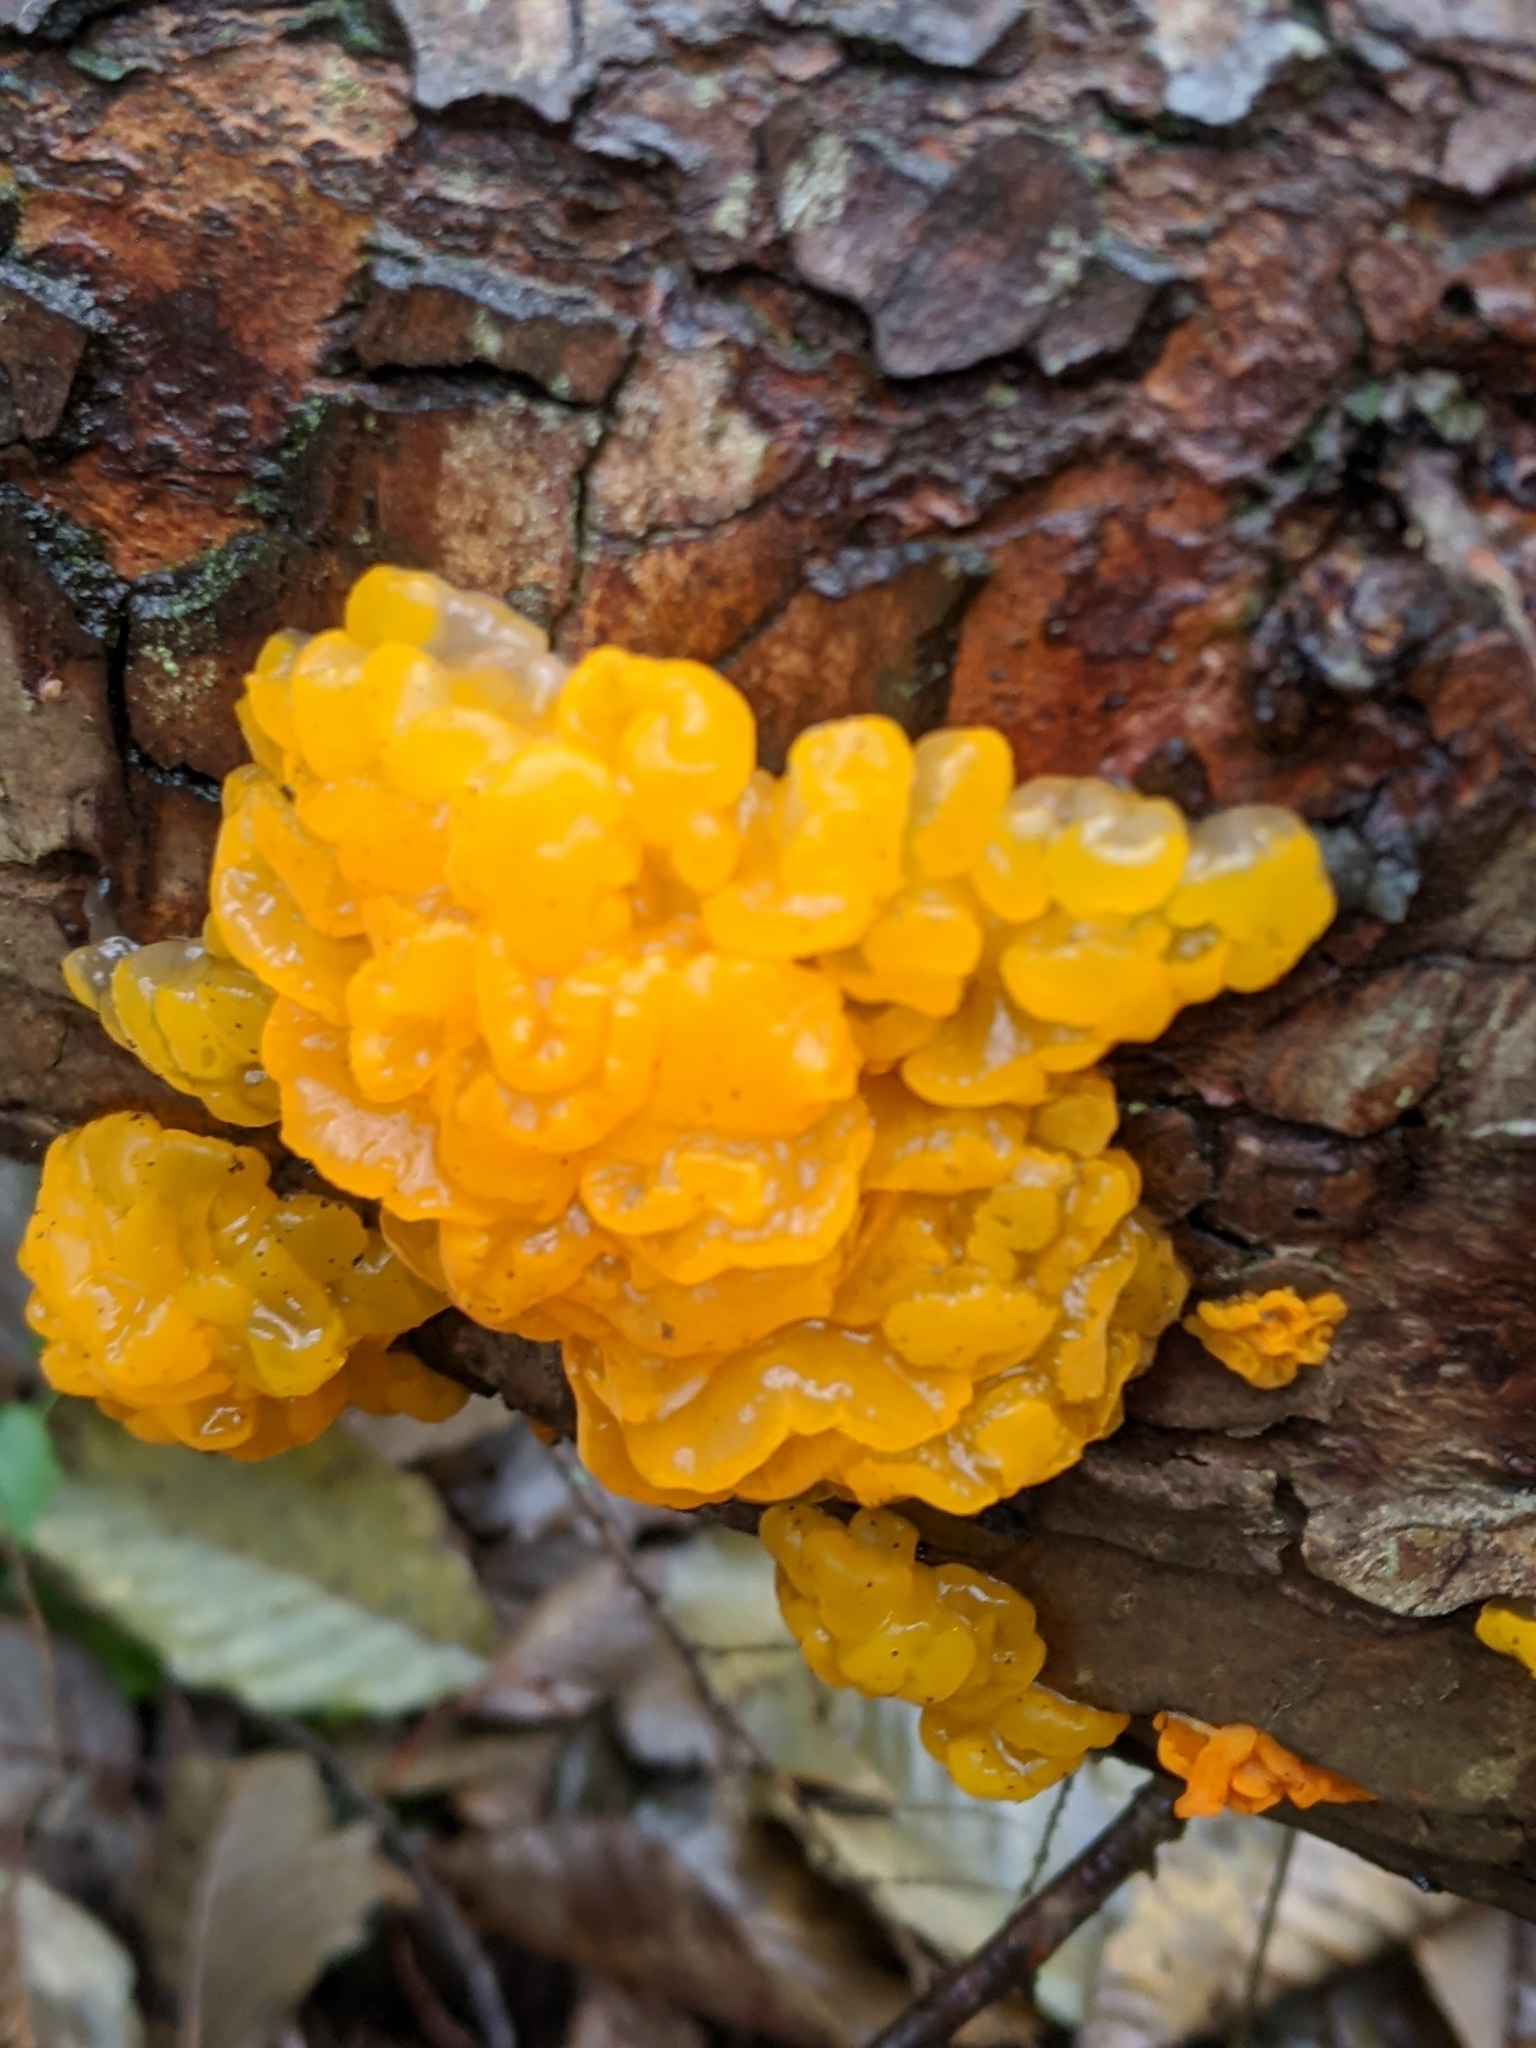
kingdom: Fungi
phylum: Basidiomycota
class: Dacrymycetes
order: Dacrymycetales
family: Dacrymycetaceae
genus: Dacrymyces
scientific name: Dacrymyces chrysospermus
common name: Orange jelly spot
